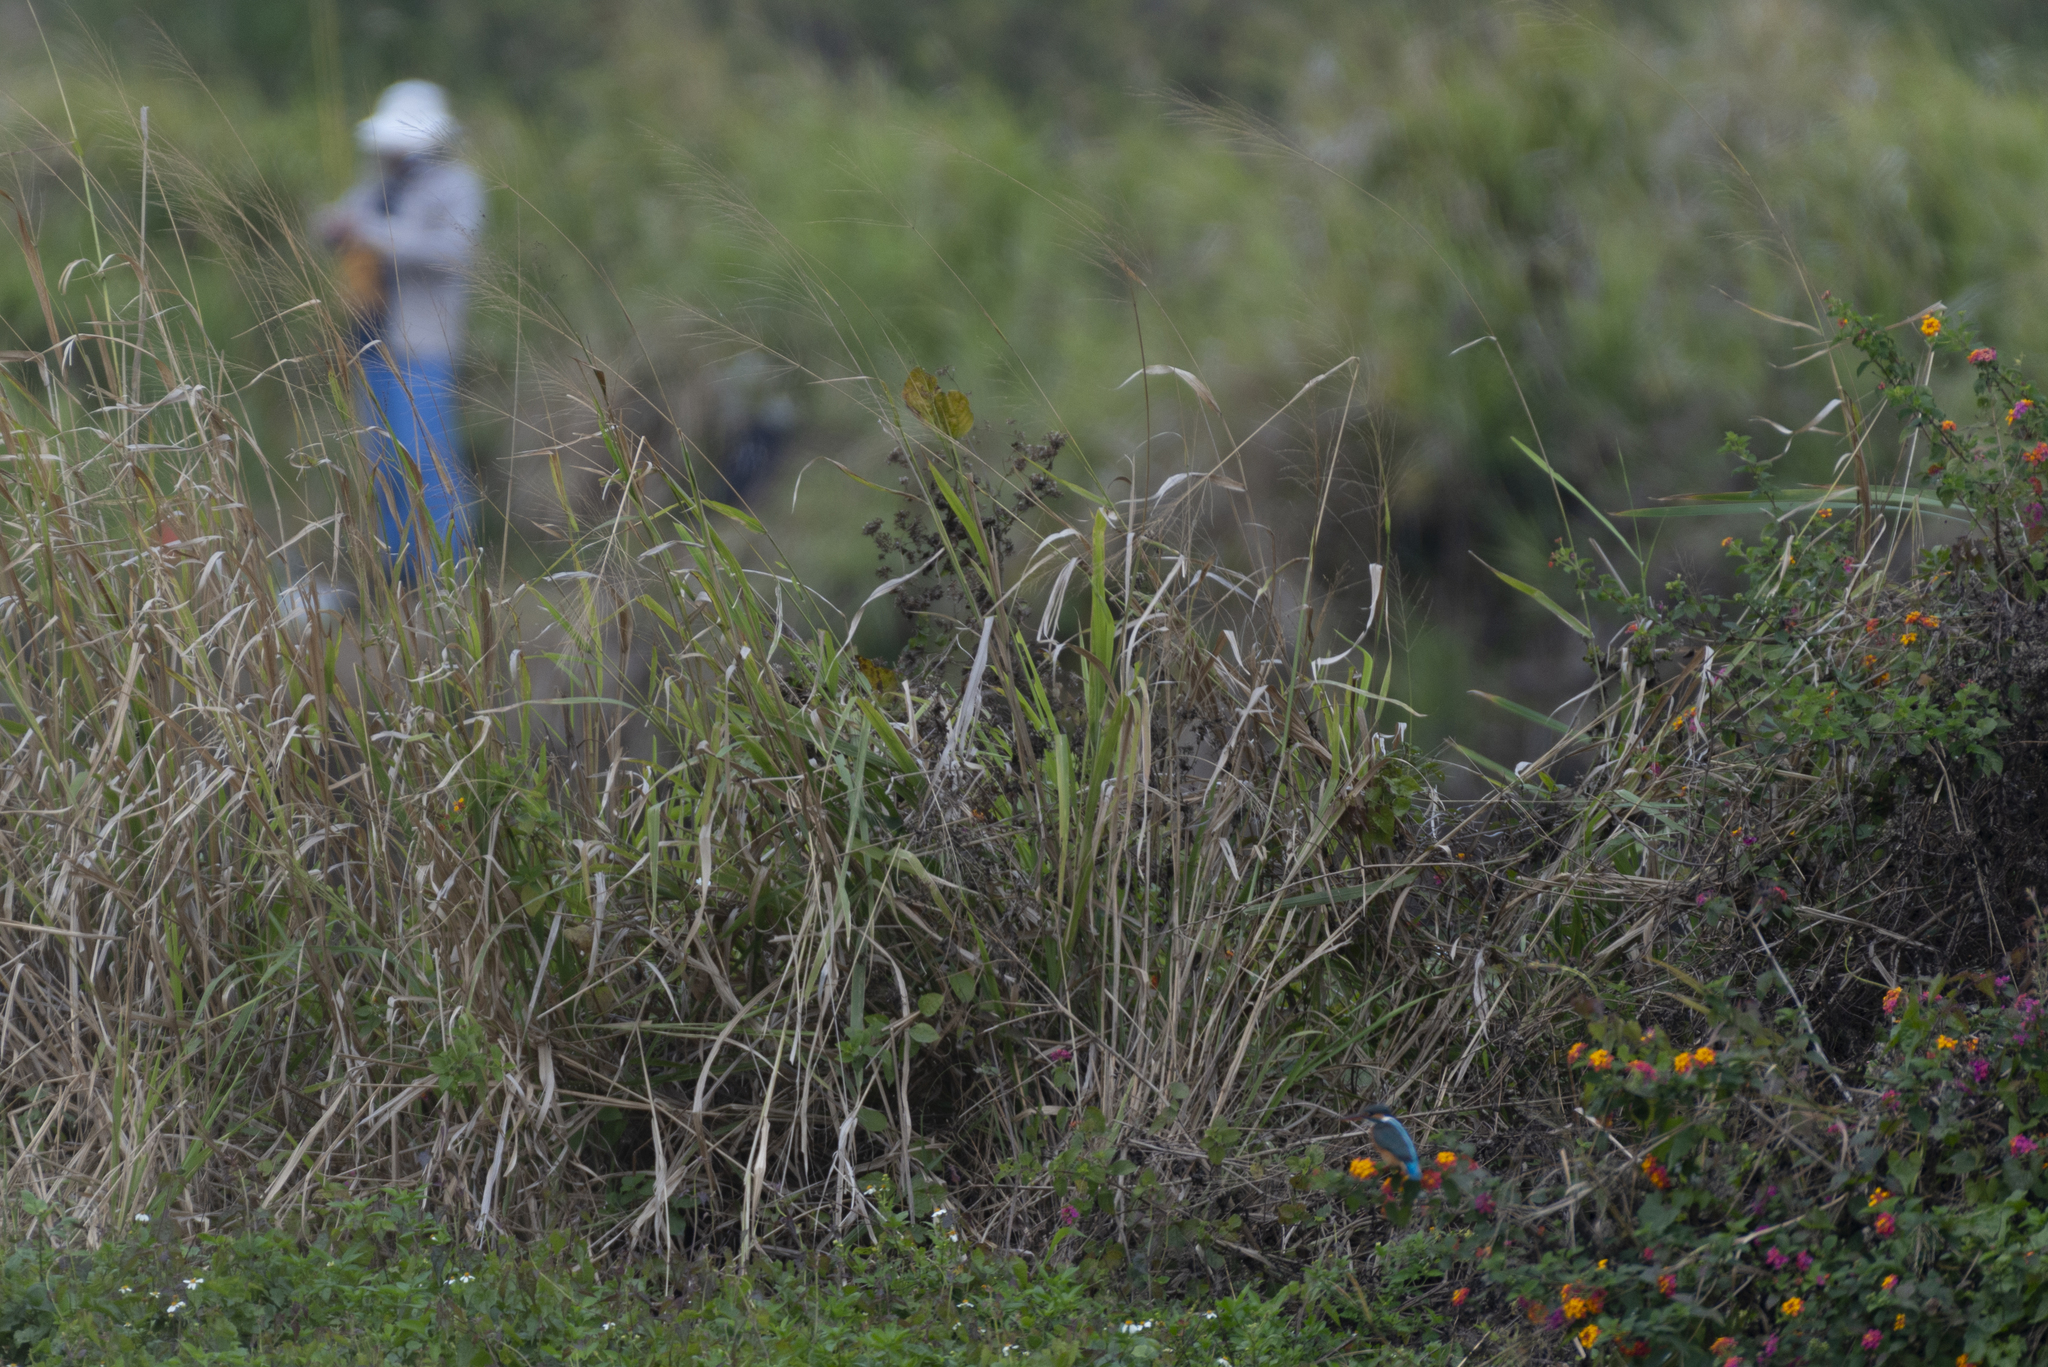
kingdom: Animalia
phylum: Chordata
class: Aves
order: Coraciiformes
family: Alcedinidae
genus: Alcedo
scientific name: Alcedo atthis
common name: Common kingfisher
